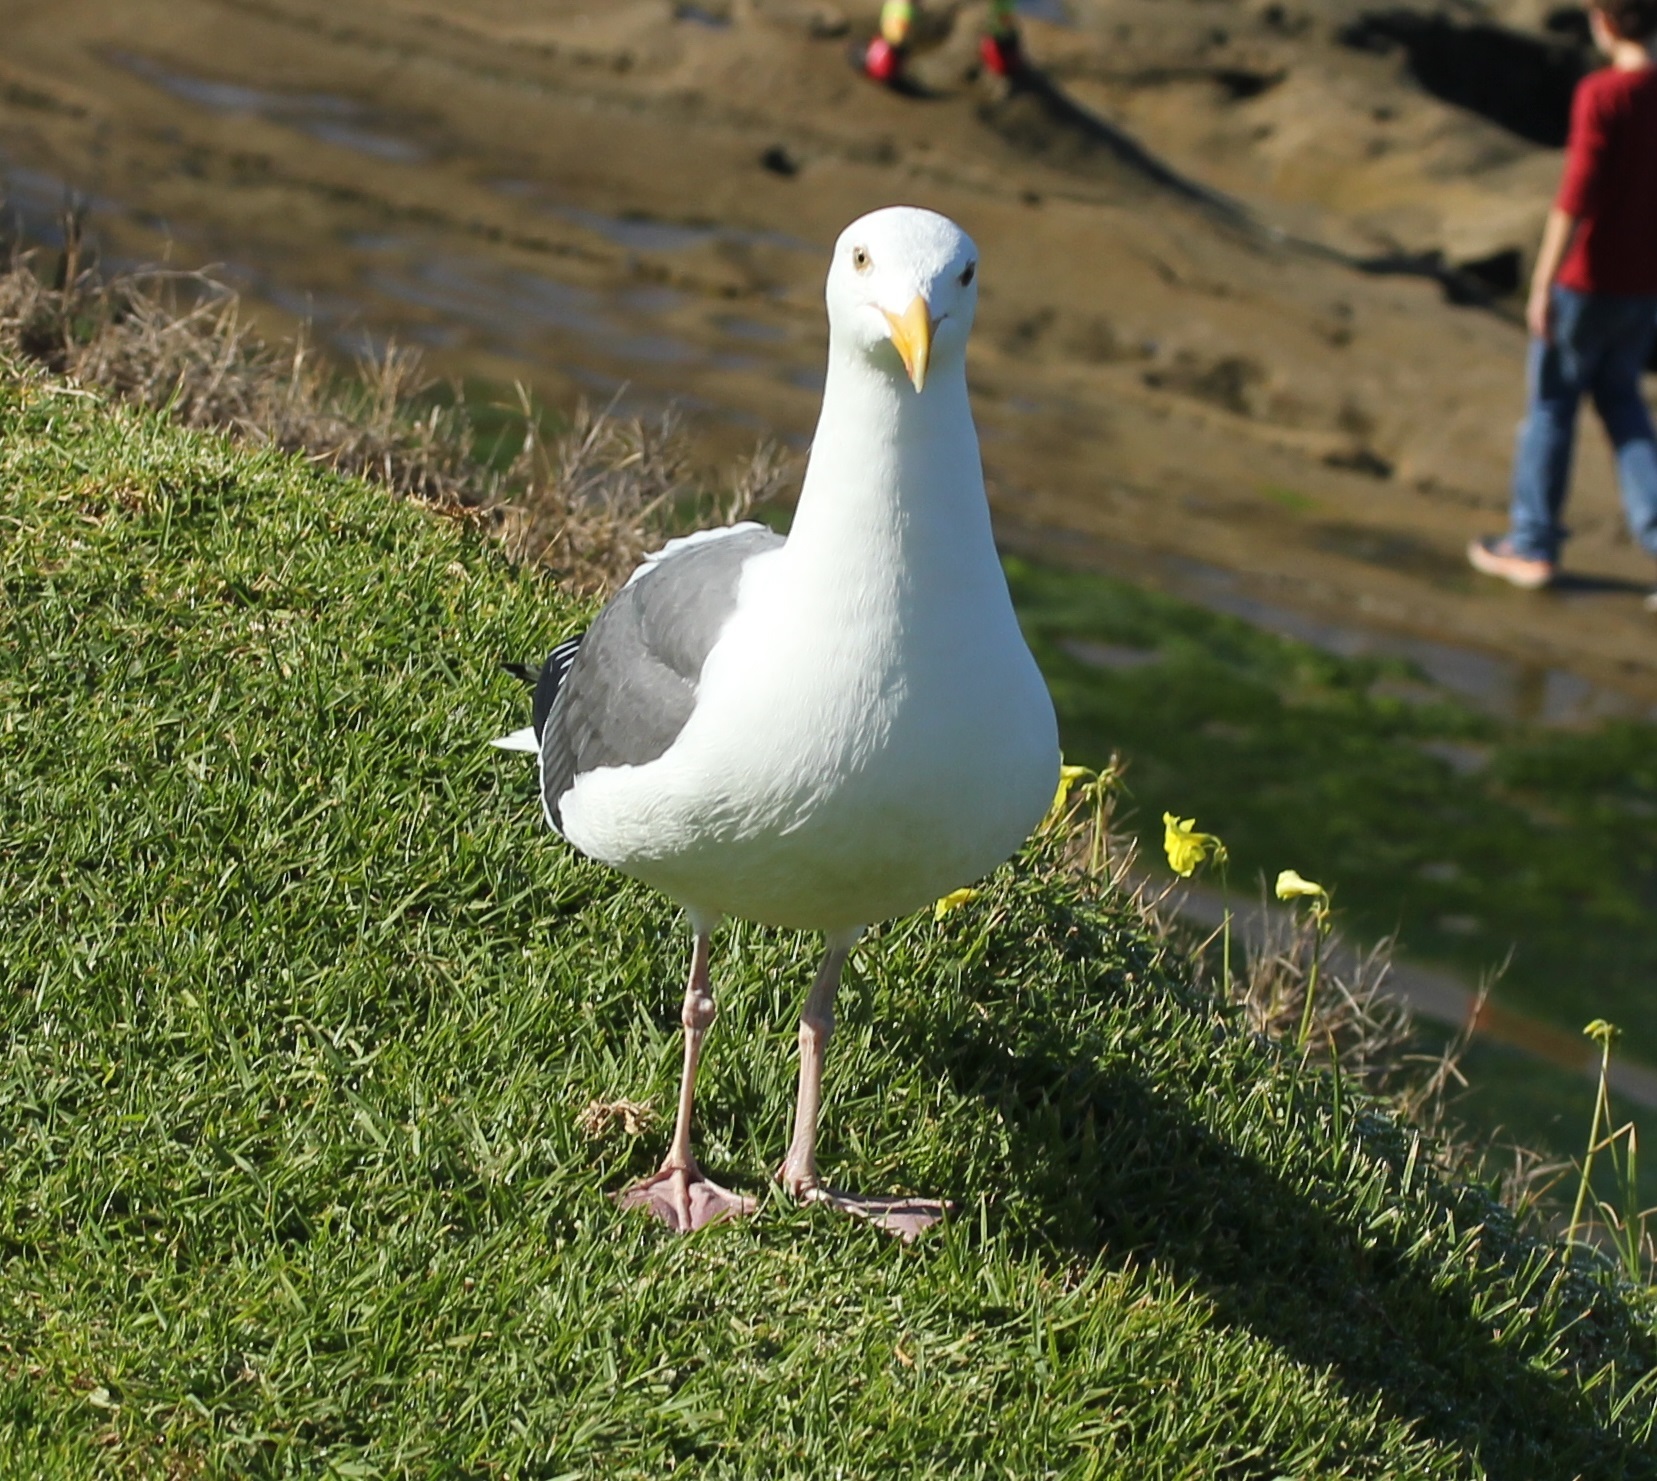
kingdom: Animalia
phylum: Chordata
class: Aves
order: Charadriiformes
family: Laridae
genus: Larus
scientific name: Larus occidentalis
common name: Western gull
